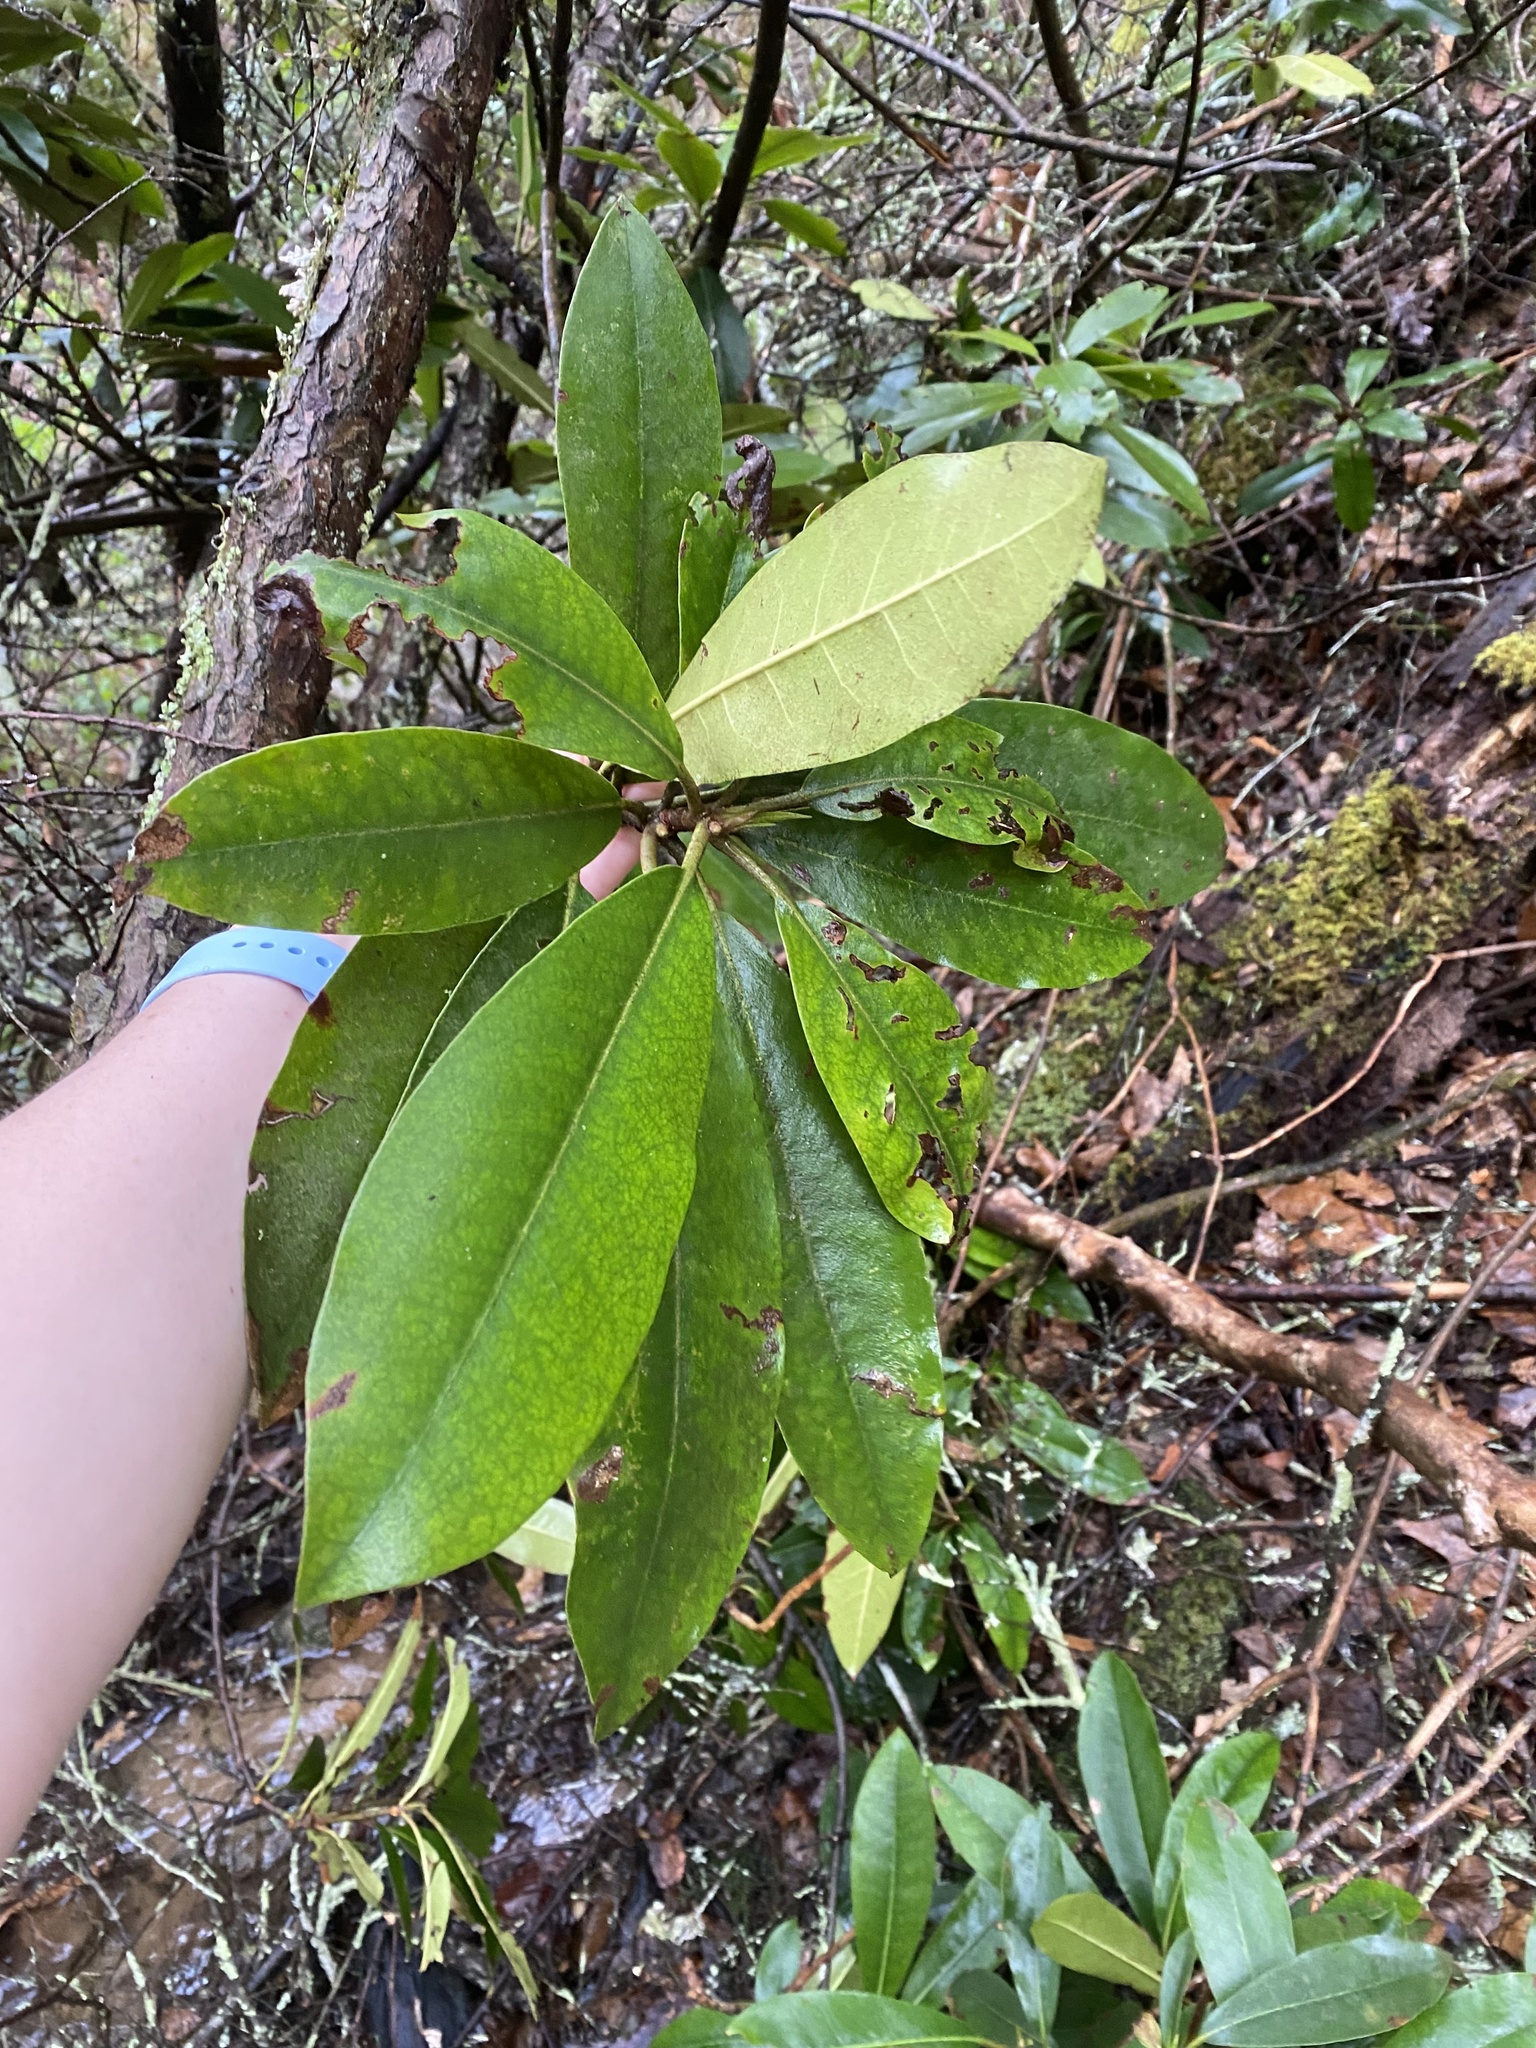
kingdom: Plantae
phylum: Tracheophyta
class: Magnoliopsida
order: Ericales
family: Ericaceae
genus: Rhododendron
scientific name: Rhododendron maximum
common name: Great rhododendron
